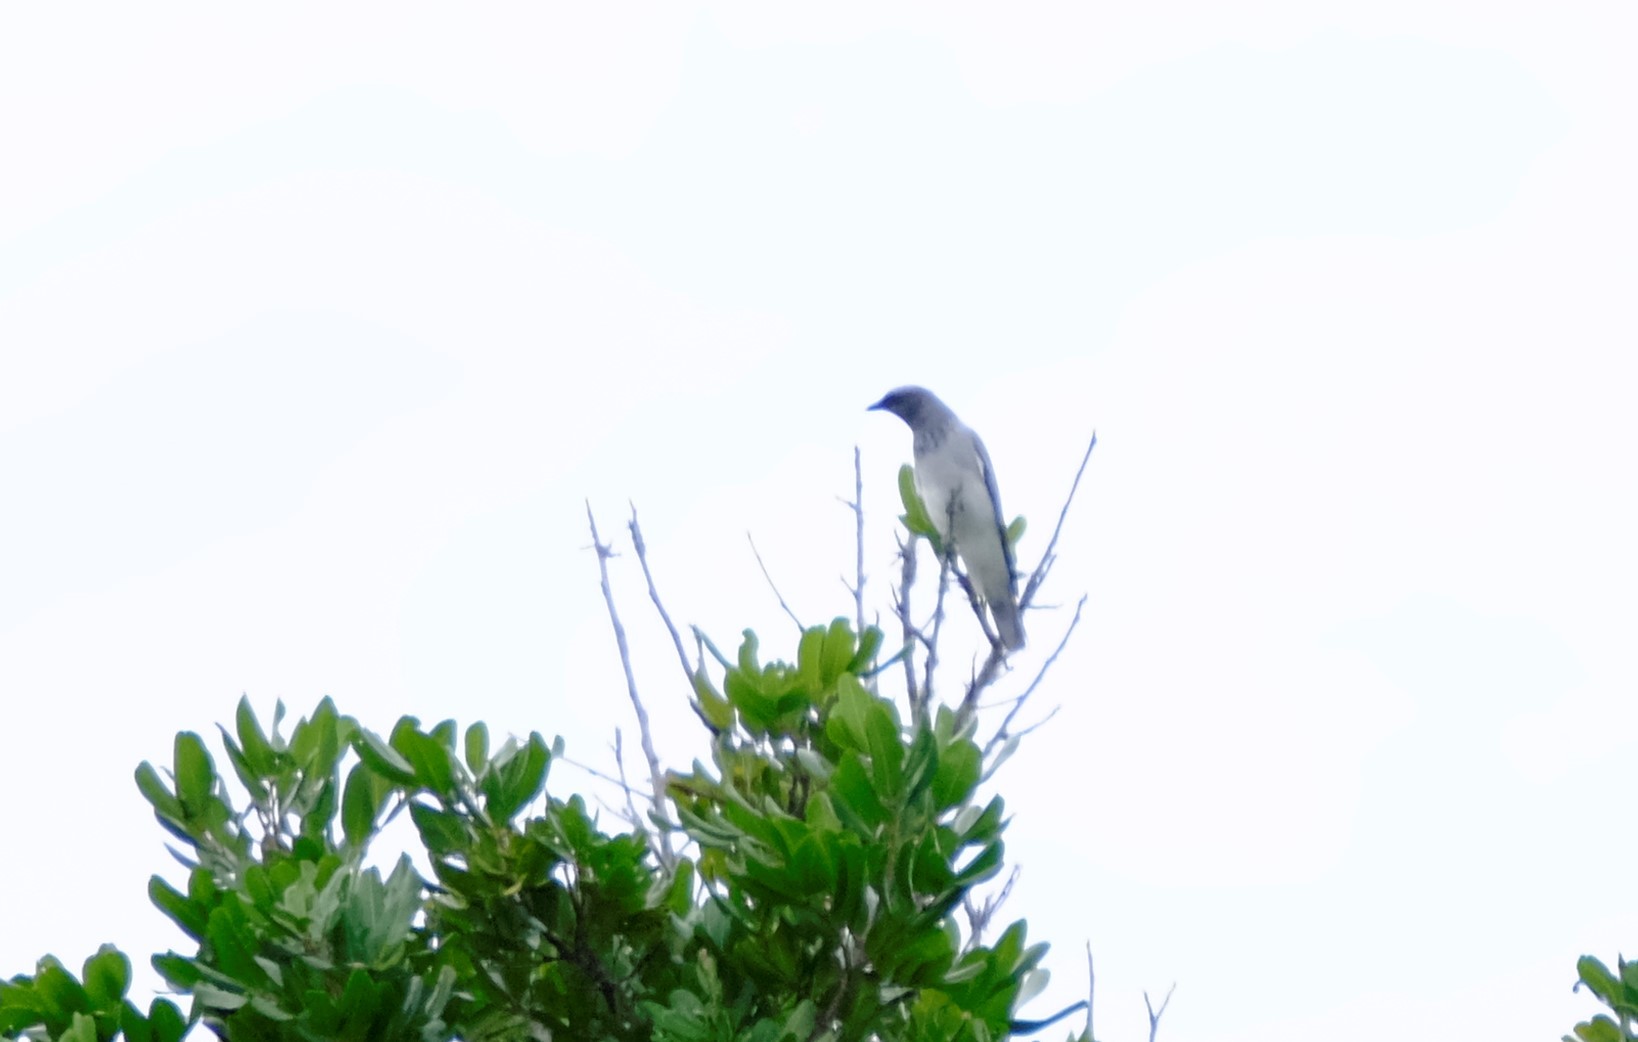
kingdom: Animalia
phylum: Chordata
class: Aves
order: Passeriformes
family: Campephagidae
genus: Coracina
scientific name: Coracina novaehollandiae
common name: Black-faced cuckooshrike
